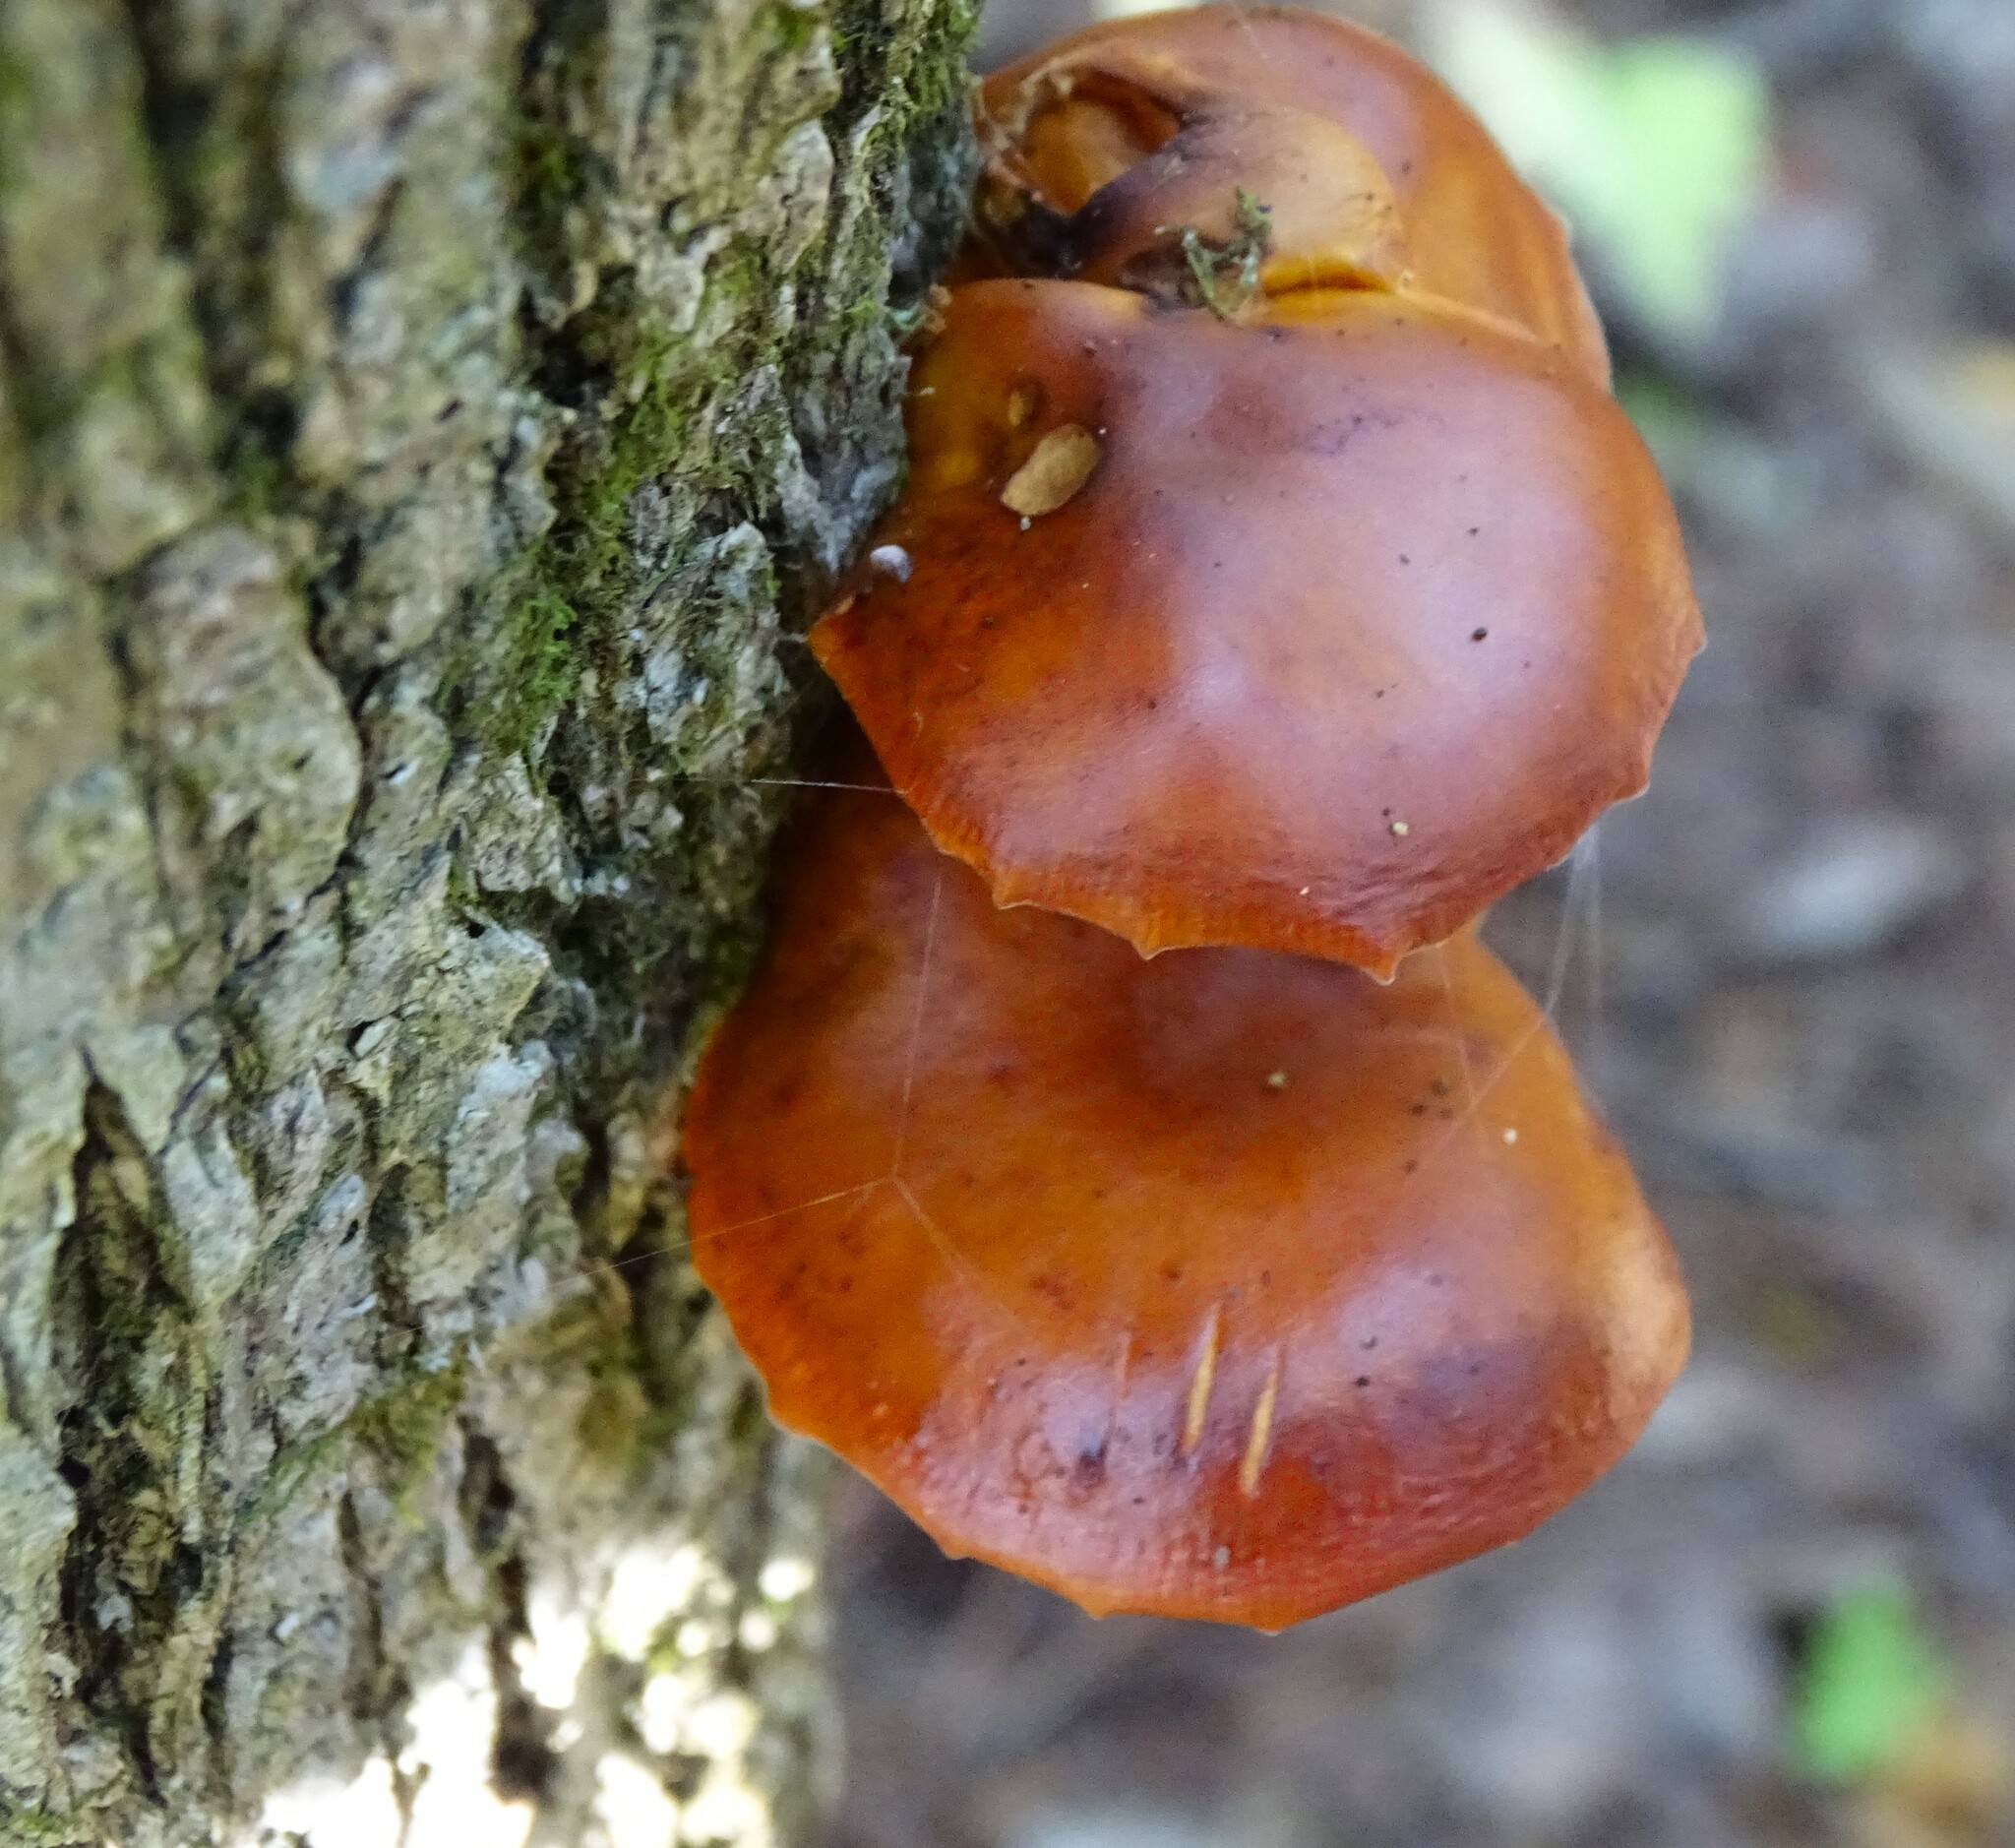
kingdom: Fungi
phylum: Basidiomycota
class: Agaricomycetes
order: Agaricales
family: Physalacriaceae
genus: Flammulina
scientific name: Flammulina velutipes
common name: Velvet shank
